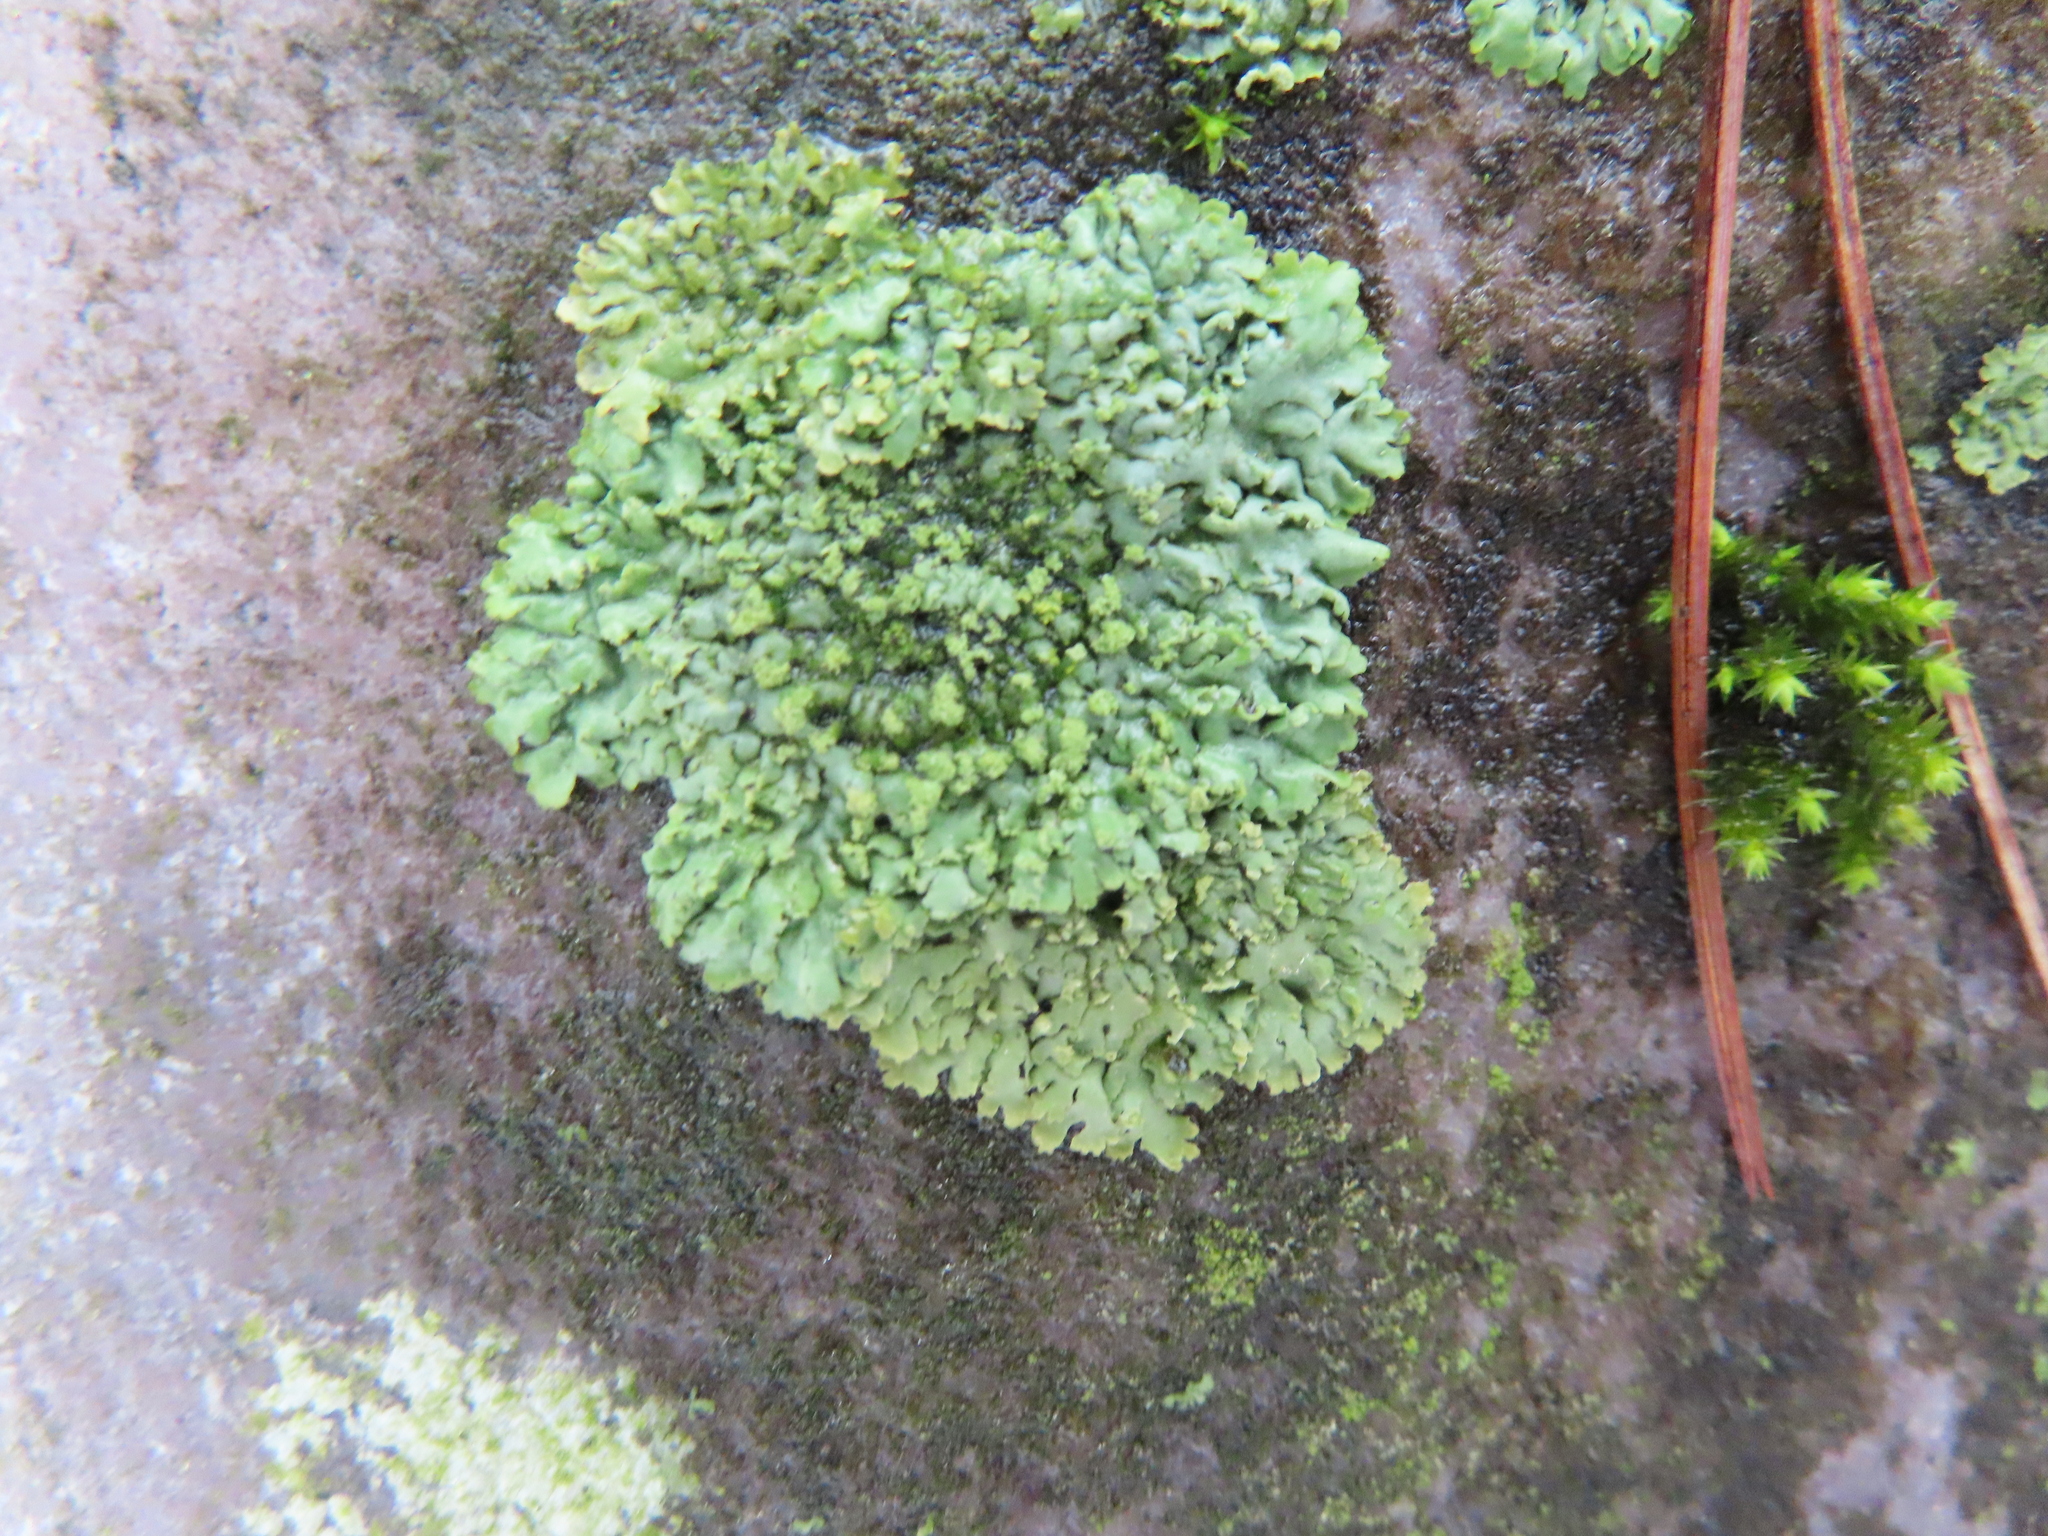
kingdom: Plantae
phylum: Bryophyta
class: Bryopsida
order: Hedwigiales
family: Hedwigiaceae
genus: Hedwigia
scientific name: Hedwigia ciliata
